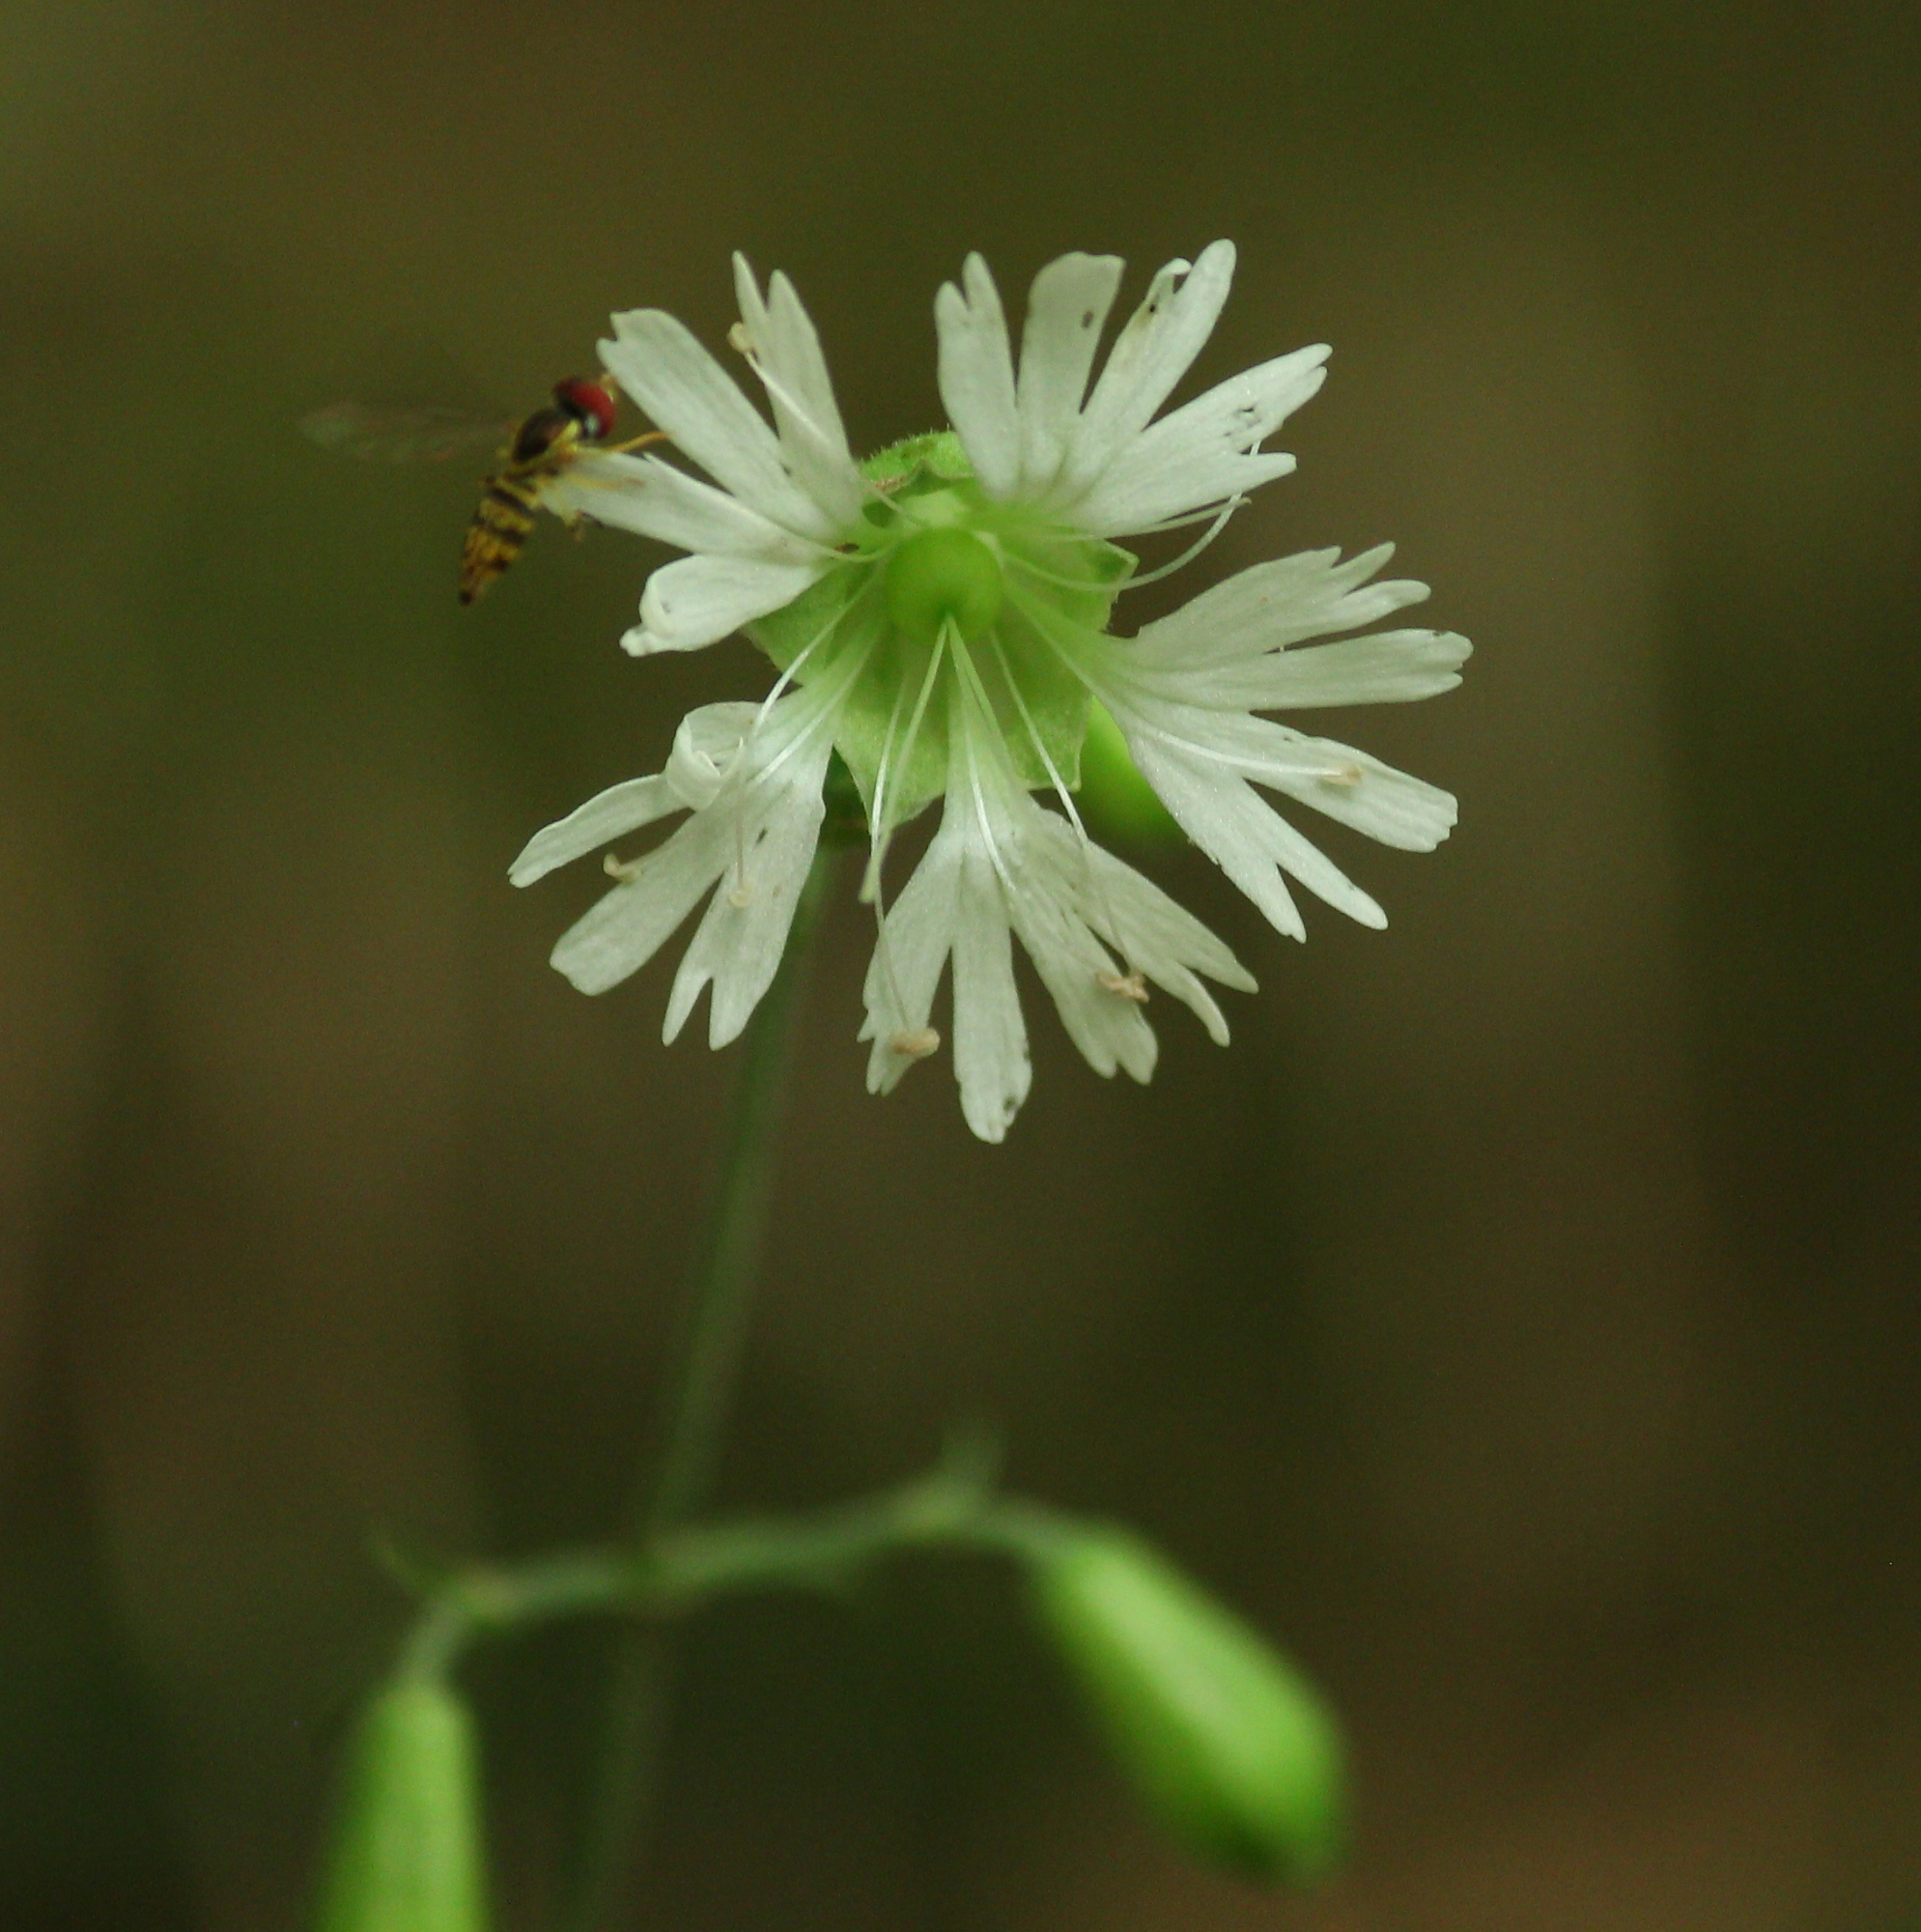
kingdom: Plantae
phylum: Tracheophyta
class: Magnoliopsida
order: Caryophyllales
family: Caryophyllaceae
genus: Silene
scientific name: Silene stellata
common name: Starry campion
